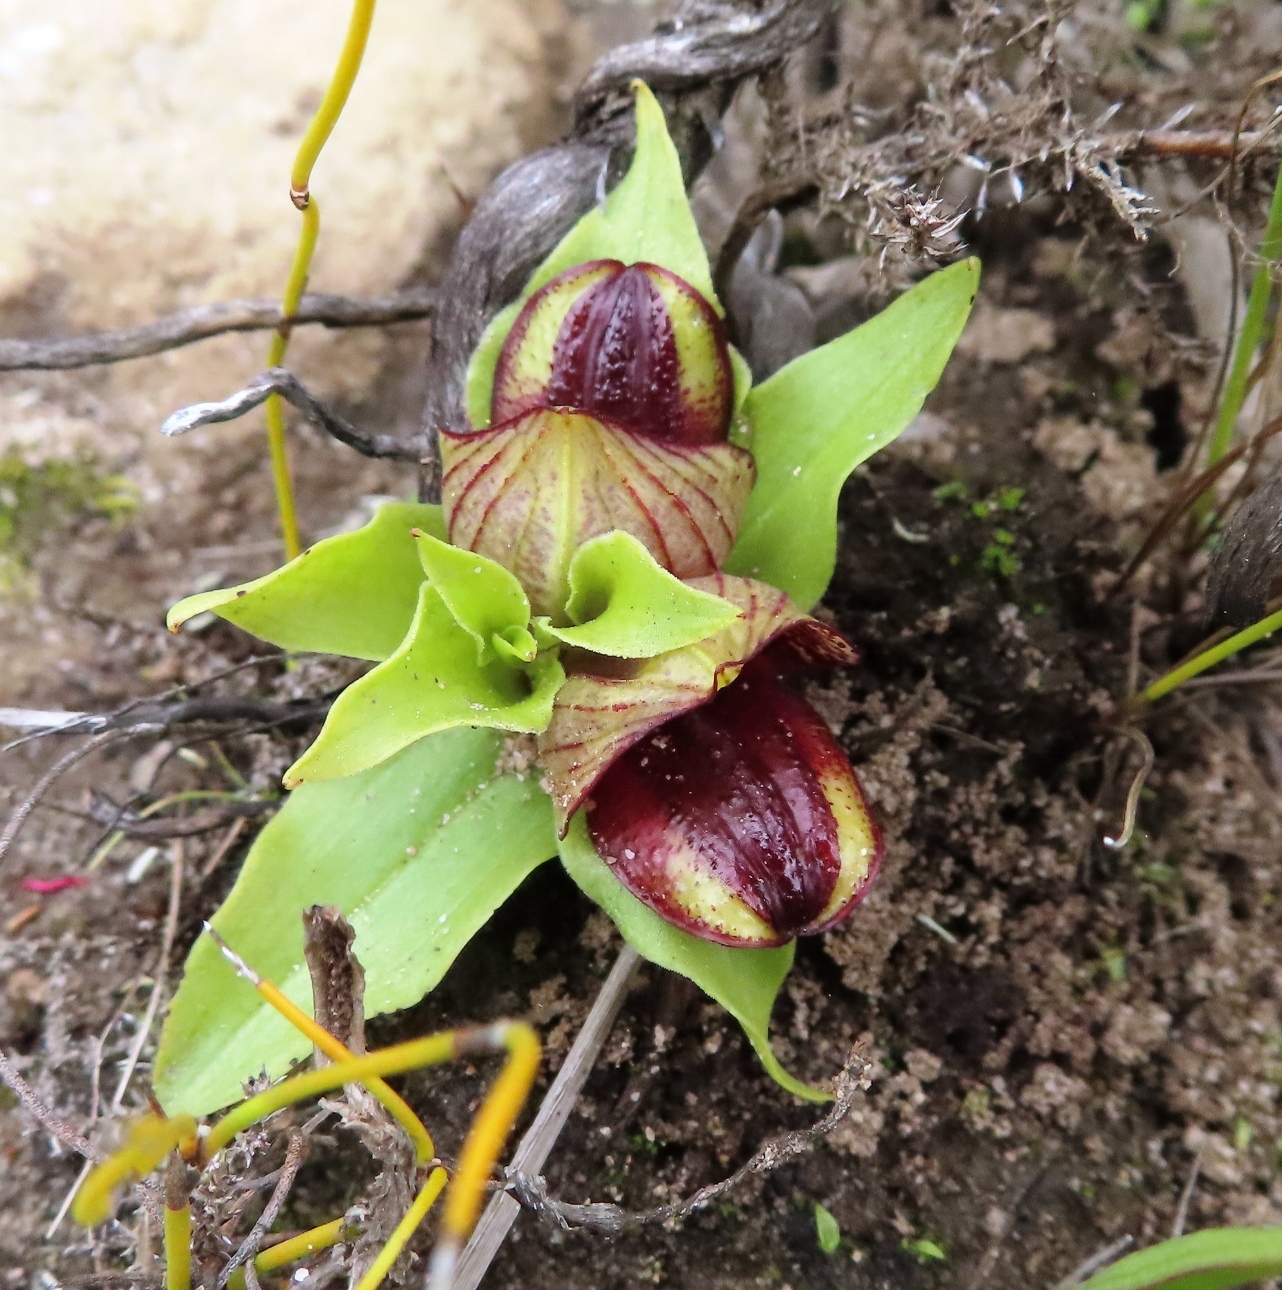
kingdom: Plantae
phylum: Tracheophyta
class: Liliopsida
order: Asparagales
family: Orchidaceae
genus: Satyrium
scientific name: Satyrium pumilum
